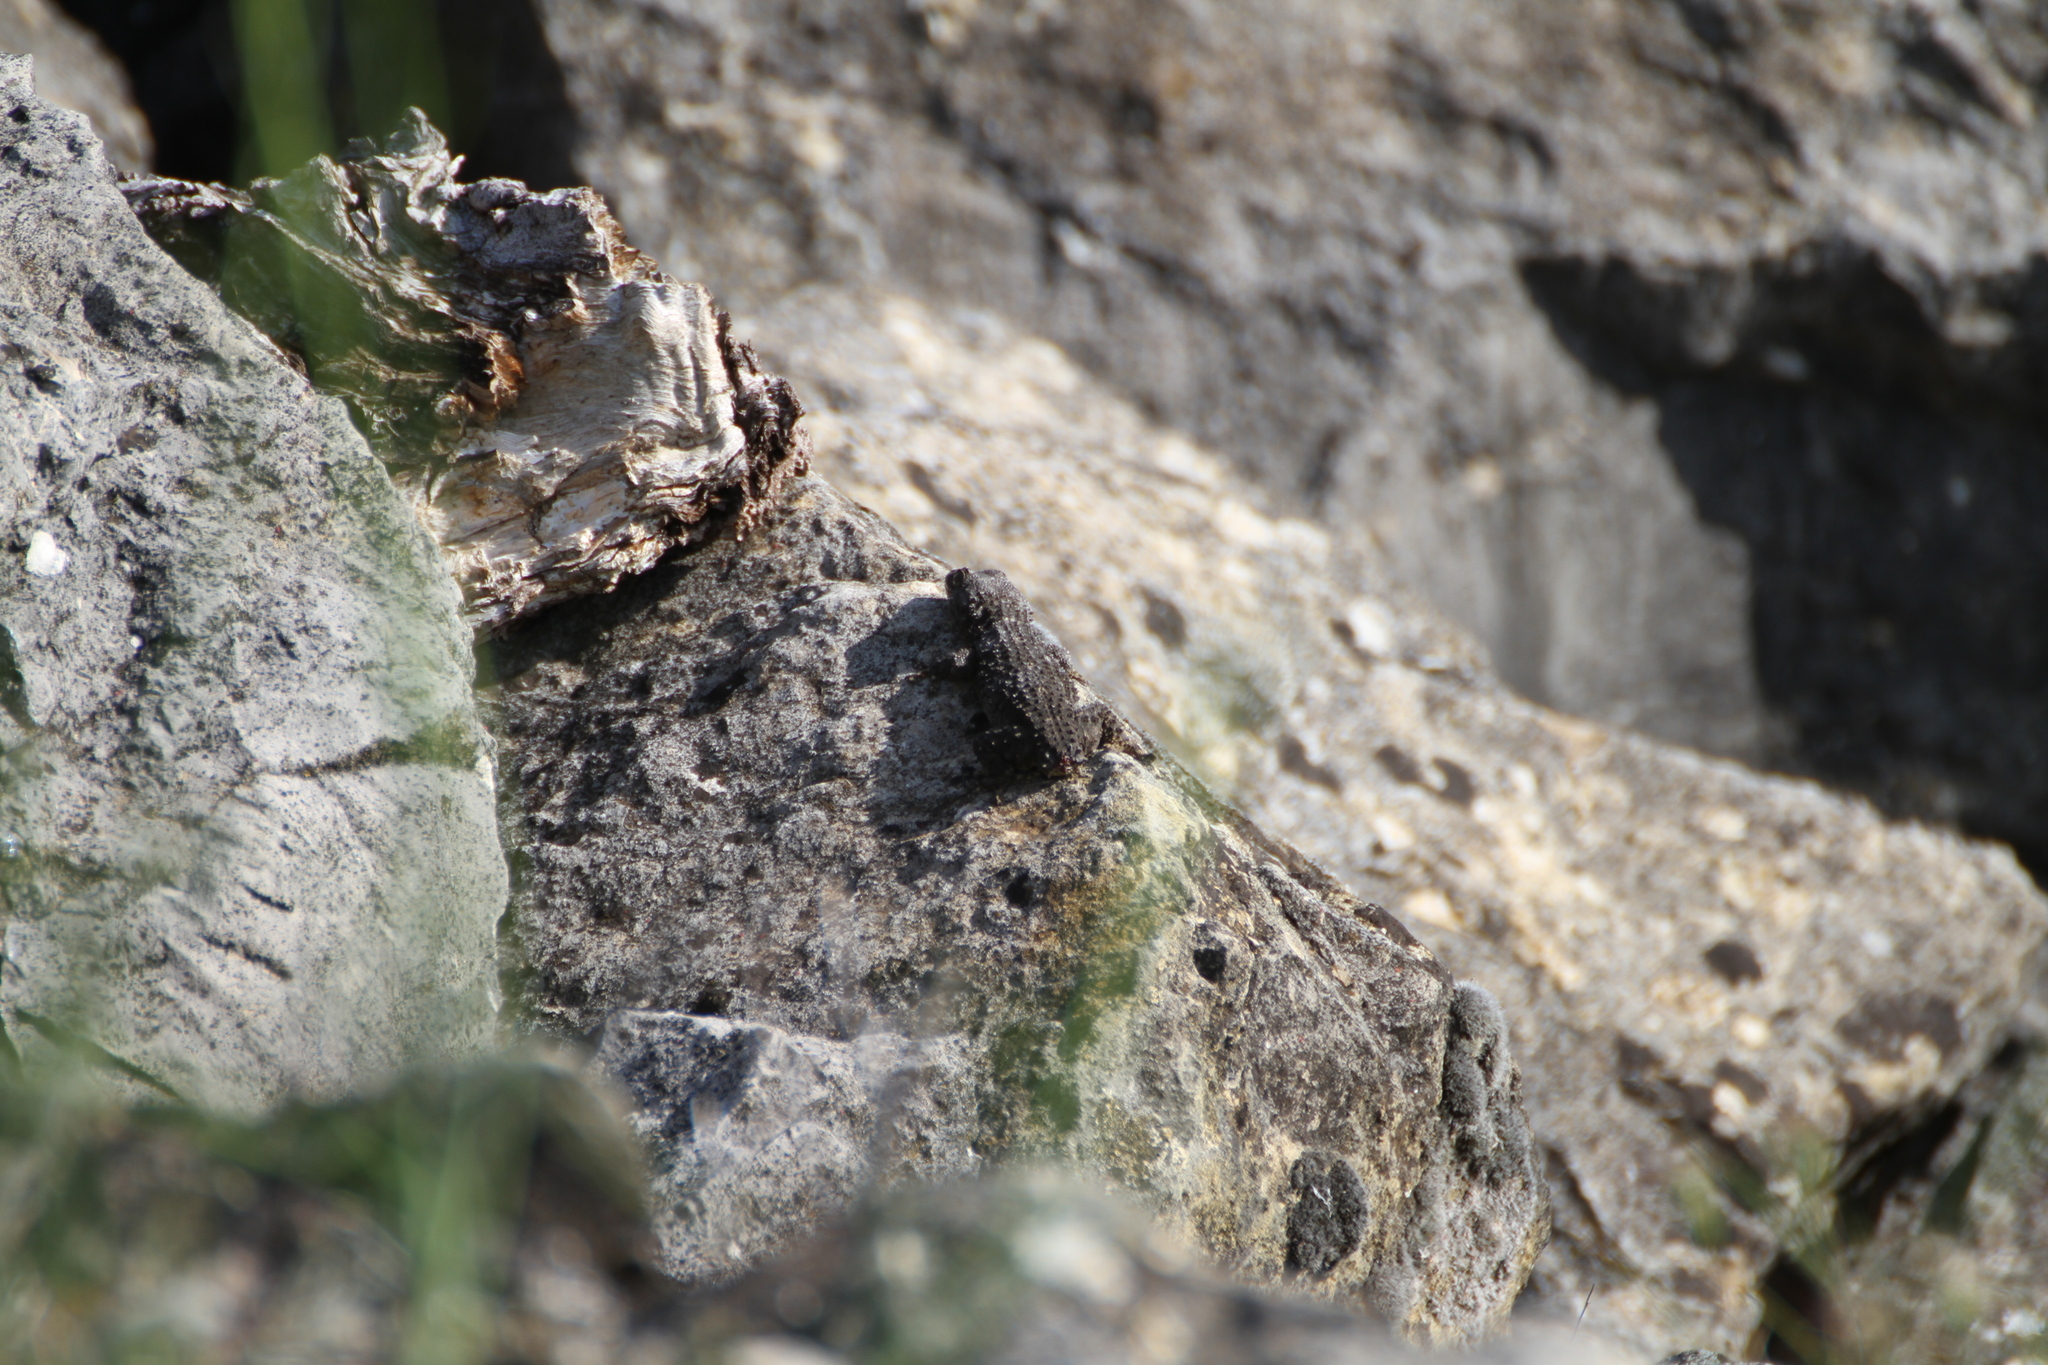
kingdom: Animalia
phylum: Chordata
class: Squamata
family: Phyllodactylidae
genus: Tarentola
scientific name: Tarentola mauritanica
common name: Moorish gecko
